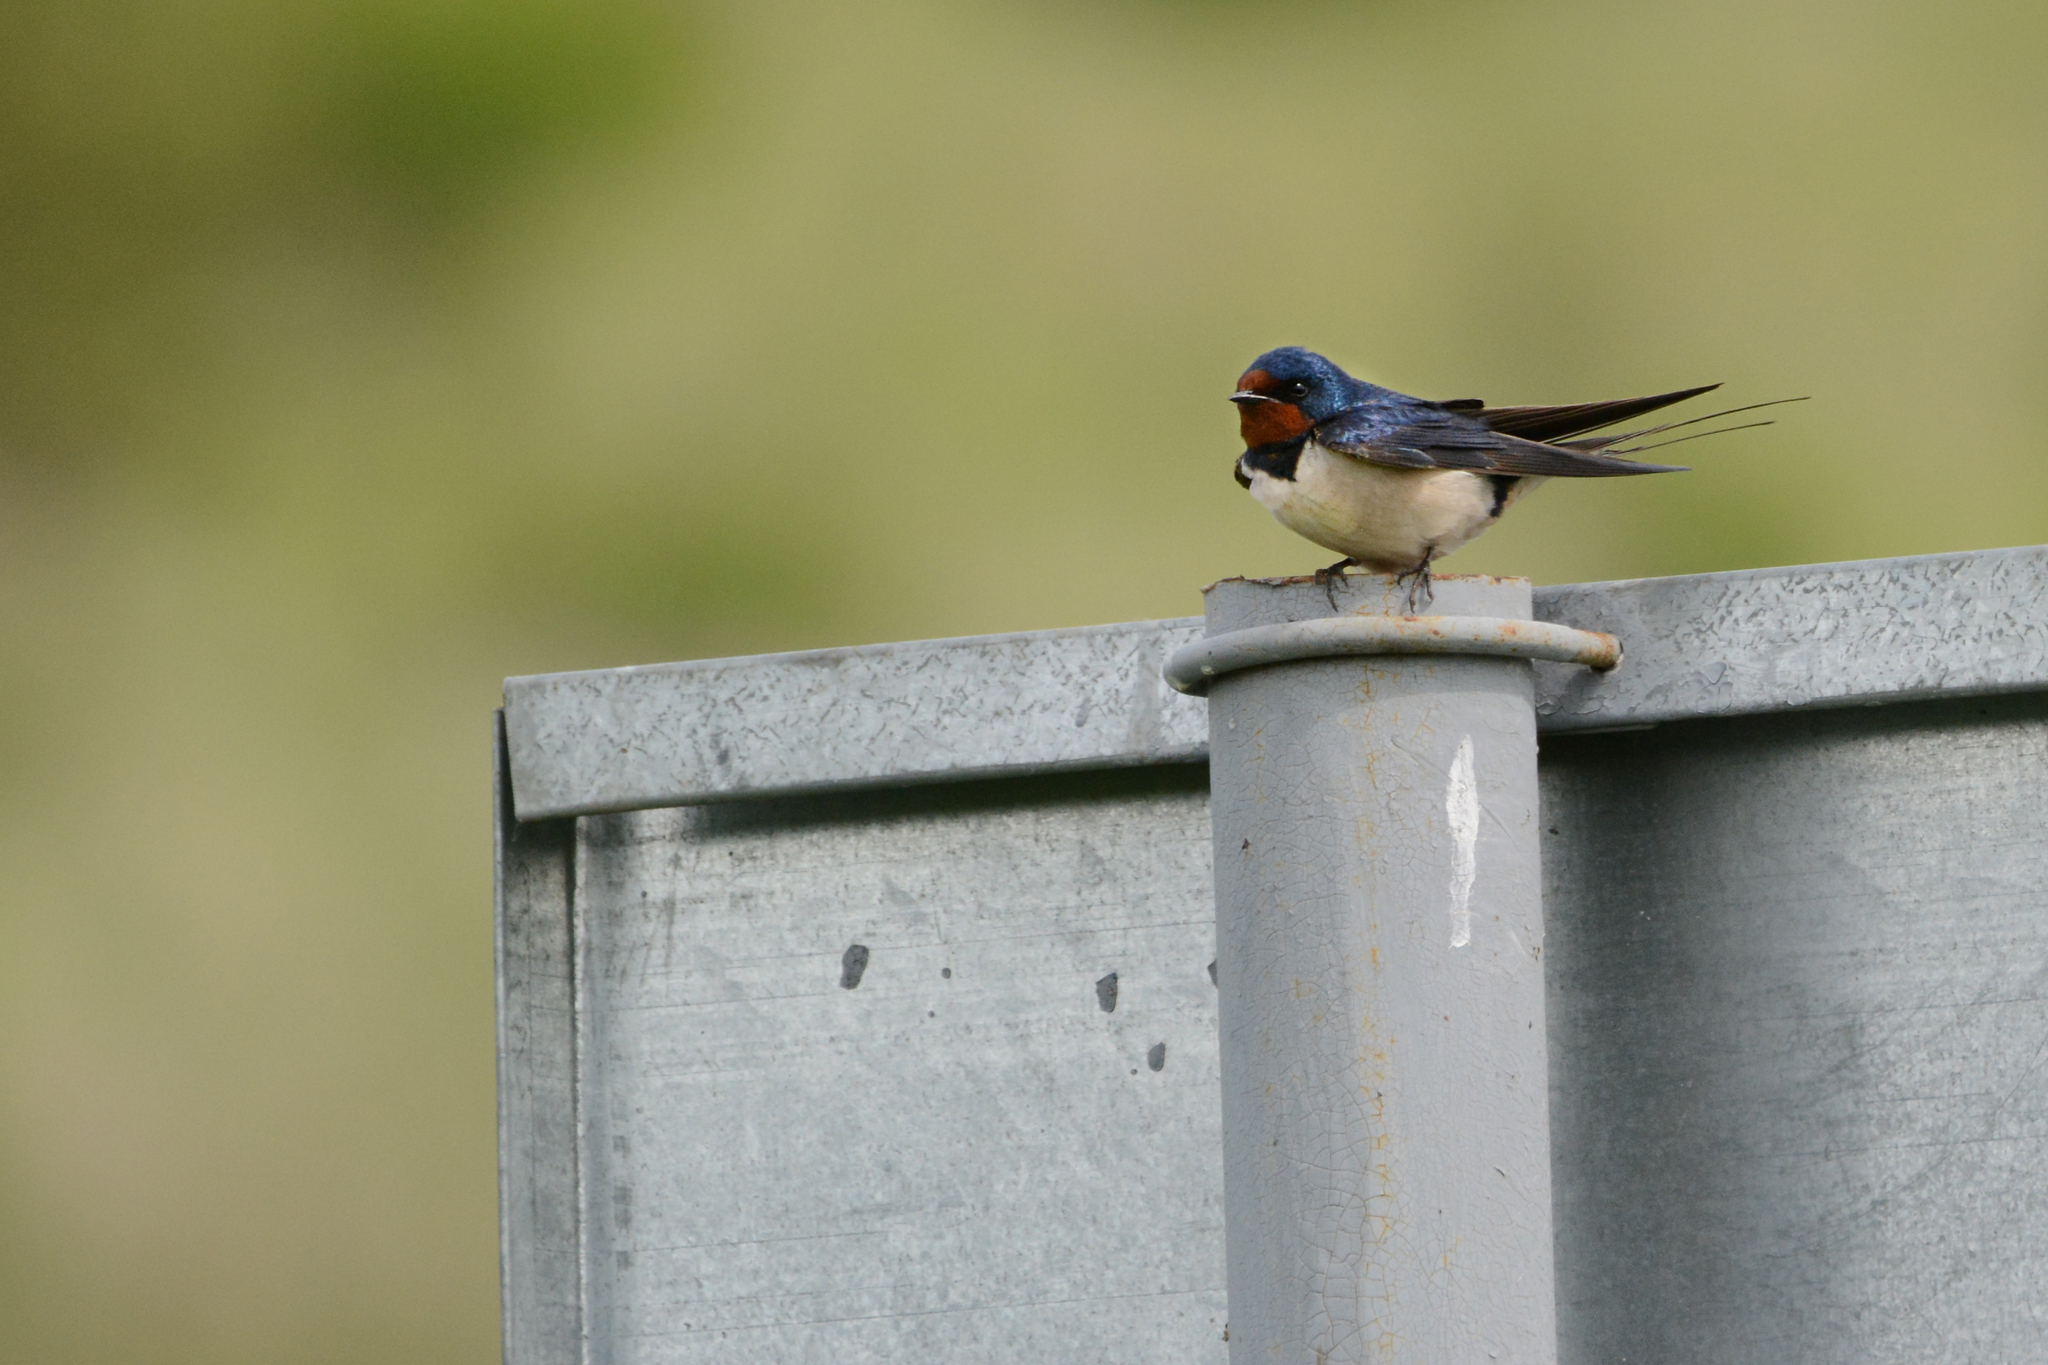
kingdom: Animalia
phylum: Chordata
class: Aves
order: Passeriformes
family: Hirundinidae
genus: Hirundo
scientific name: Hirundo rustica
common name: Barn swallow
